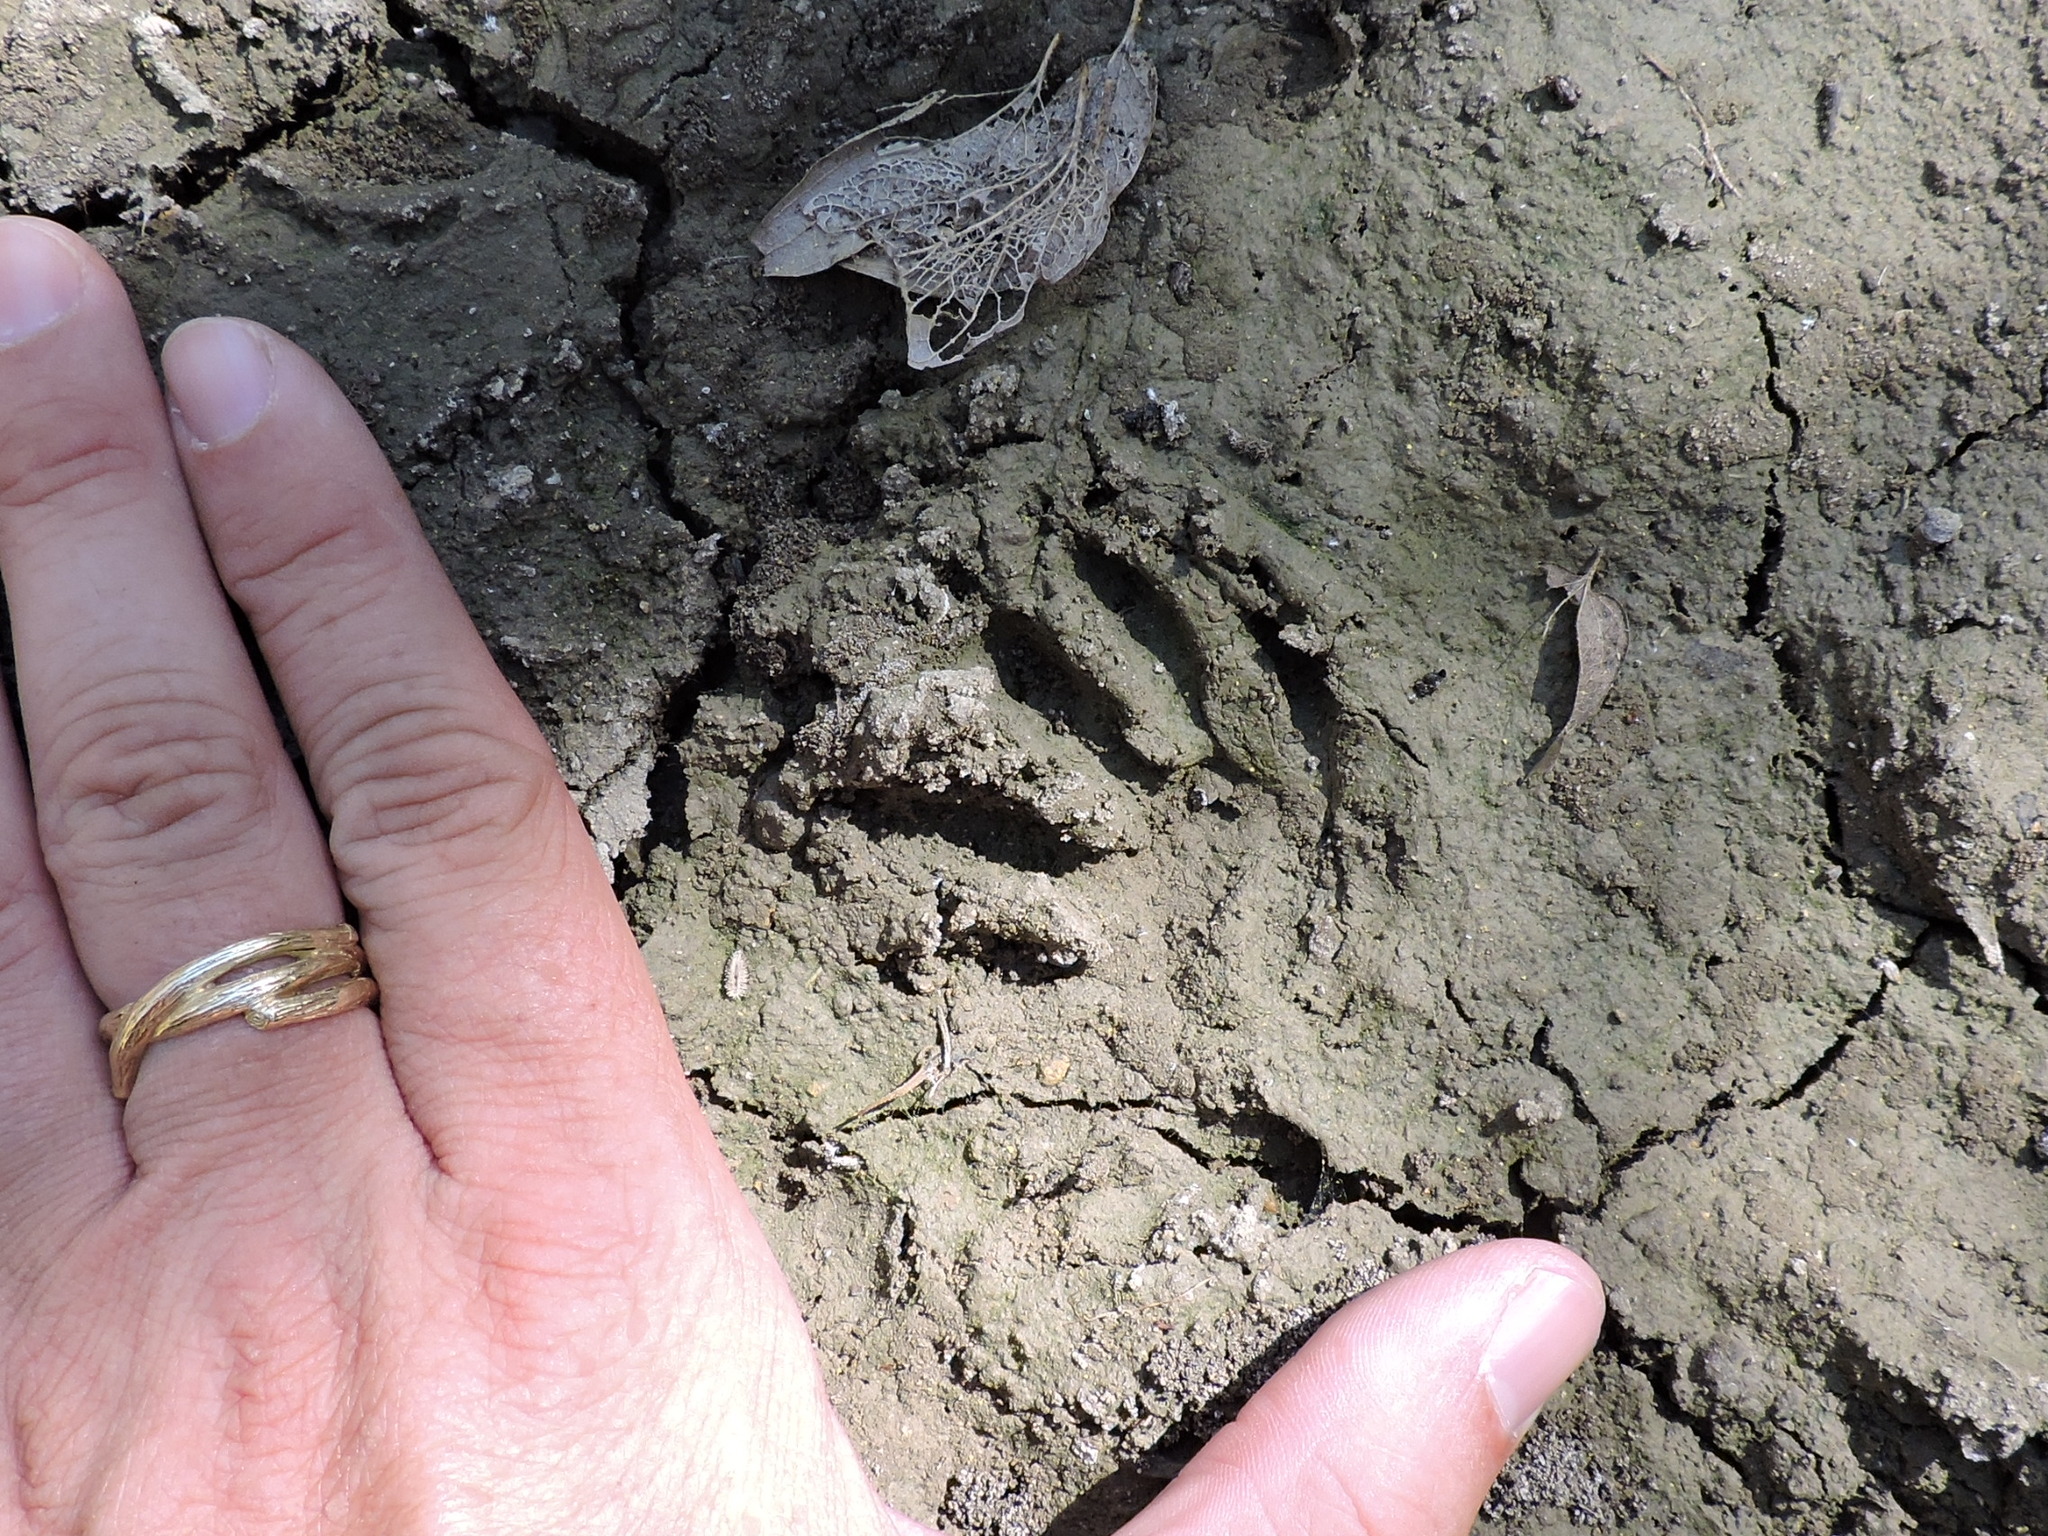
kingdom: Animalia
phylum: Chordata
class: Mammalia
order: Carnivora
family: Procyonidae
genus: Procyon
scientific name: Procyon lotor
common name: Raccoon
